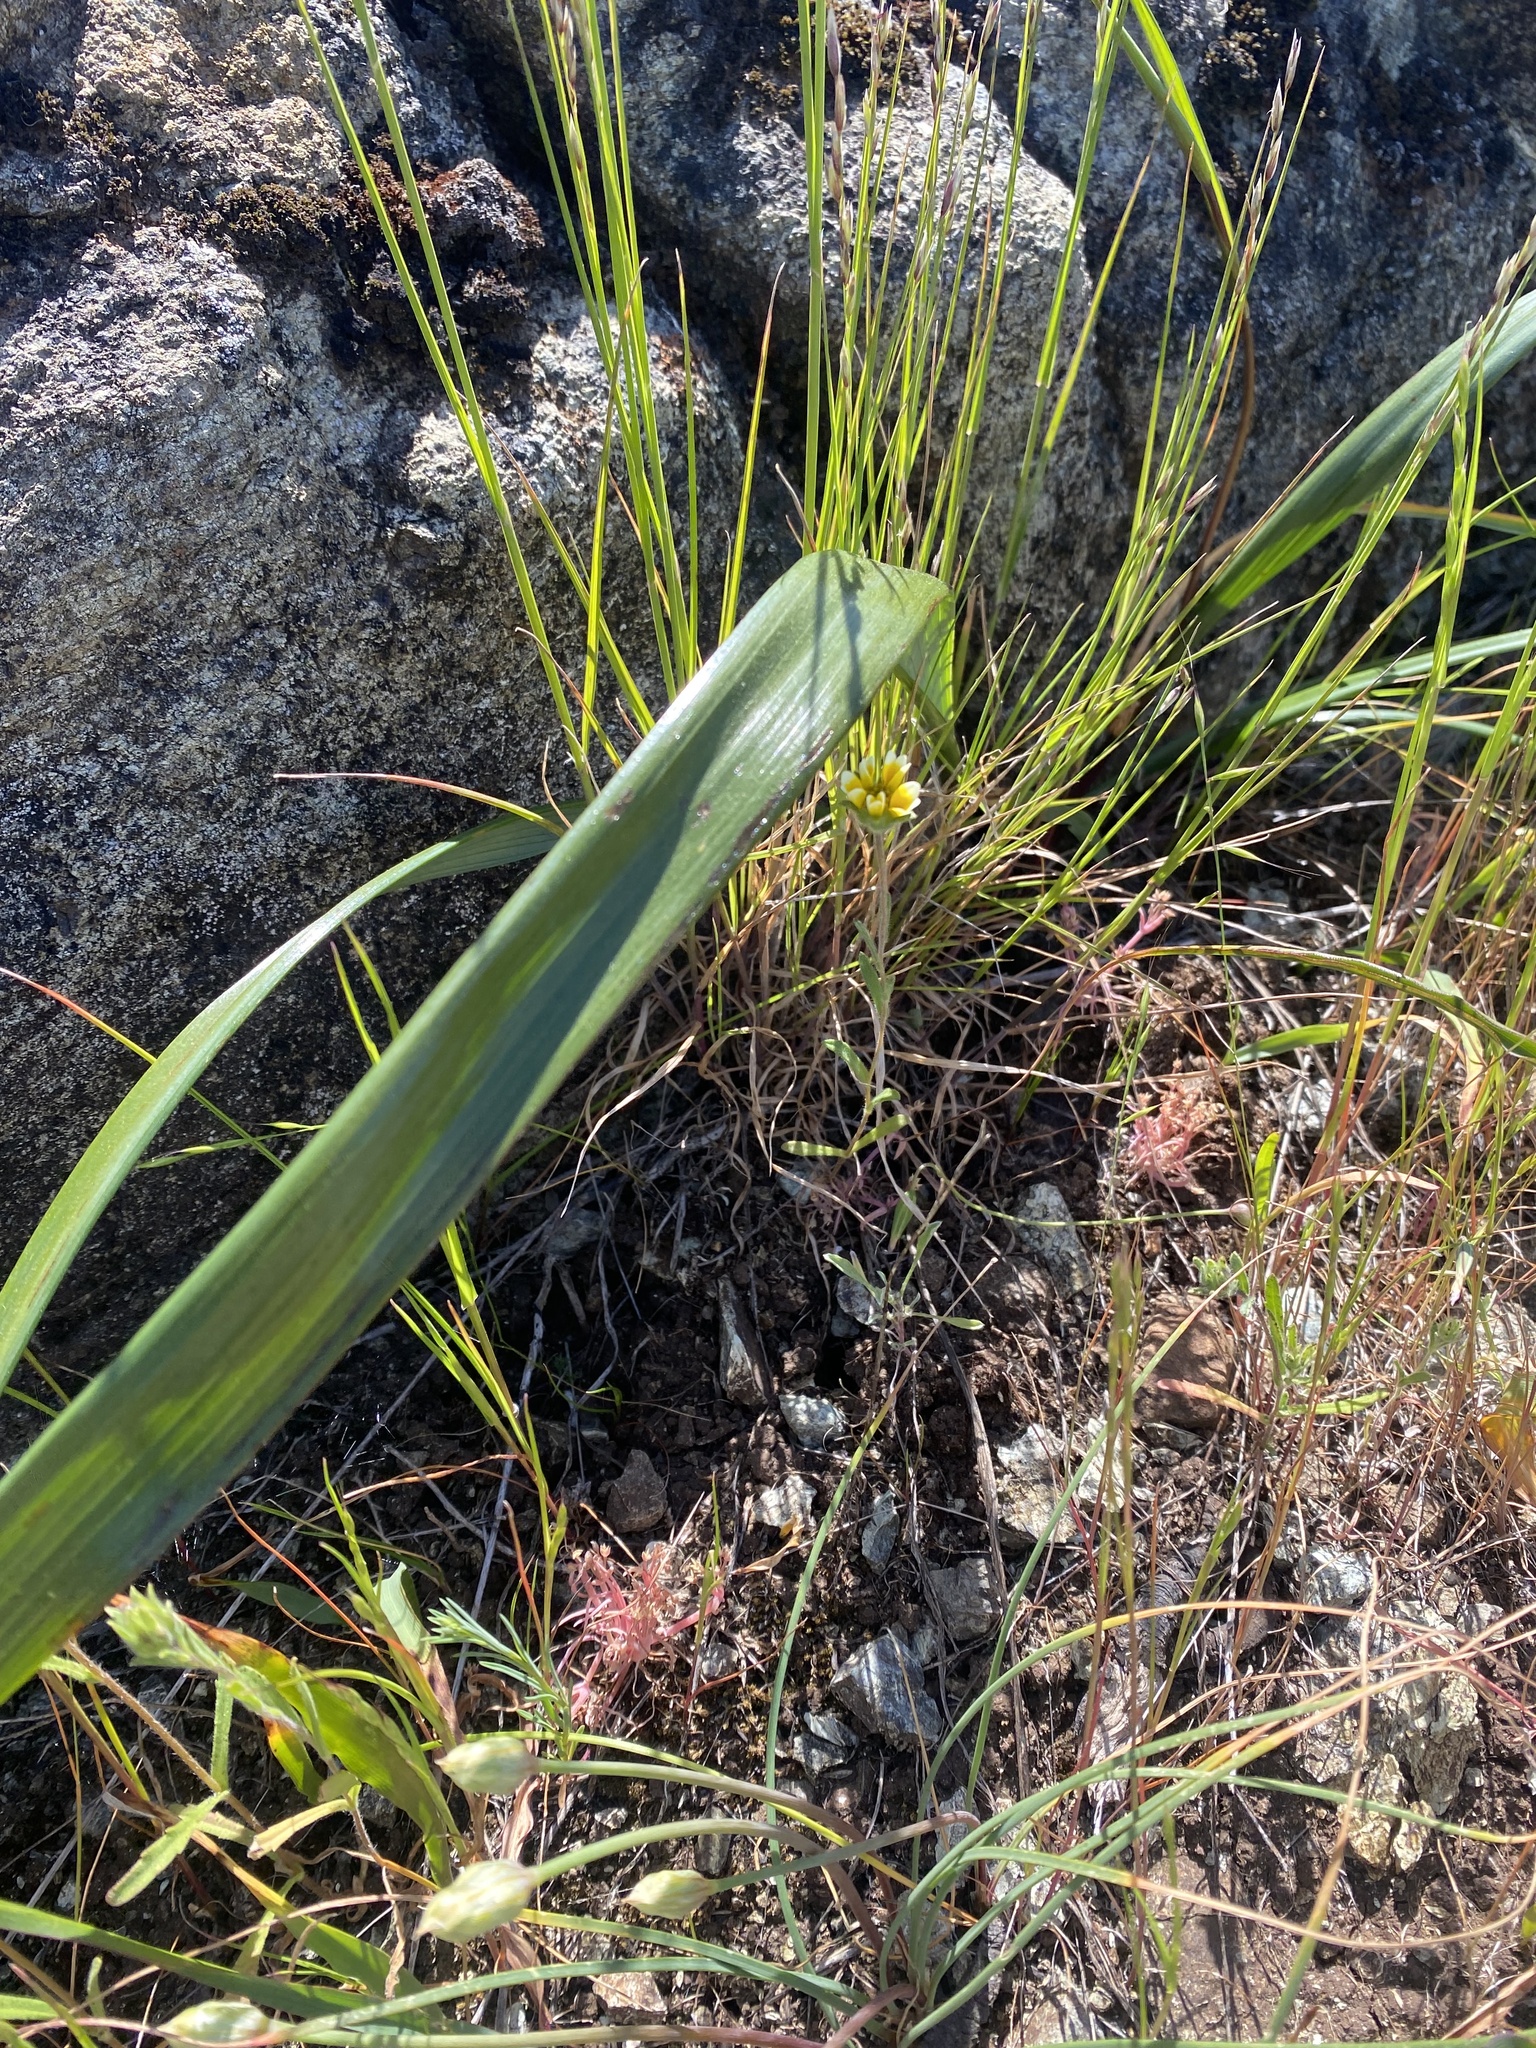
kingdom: Plantae
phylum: Tracheophyta
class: Liliopsida
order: Liliales
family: Liliaceae
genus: Calochortus
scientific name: Calochortus tiburonensis
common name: Tiburon mariposa-lily
